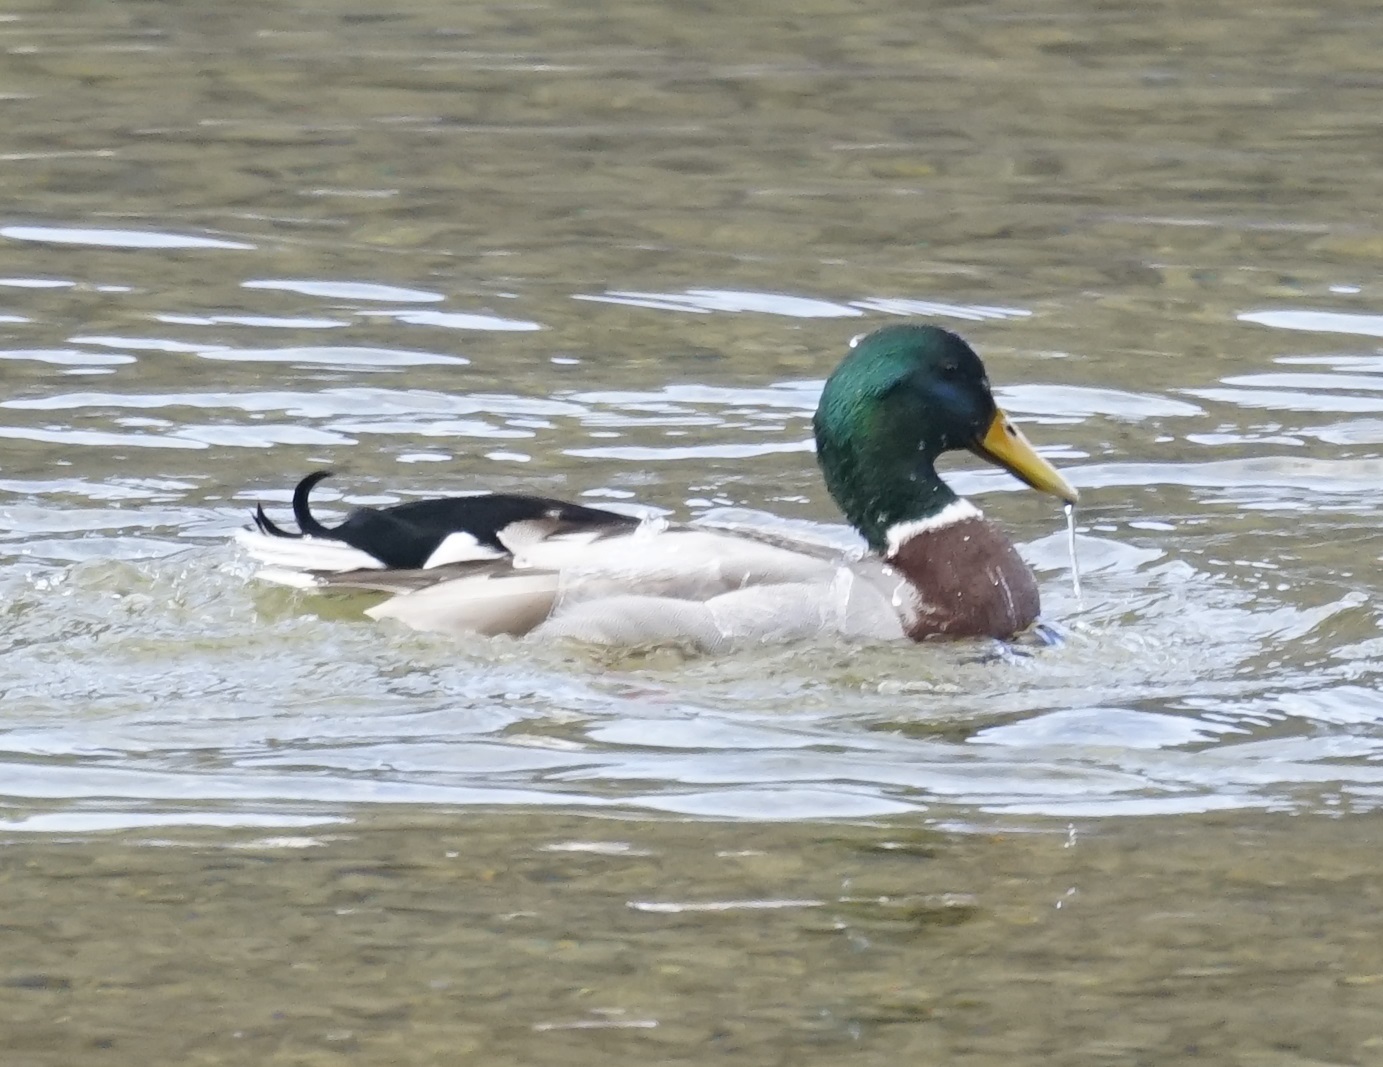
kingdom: Animalia
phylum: Chordata
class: Aves
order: Anseriformes
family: Anatidae
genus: Anas
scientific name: Anas platyrhynchos
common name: Mallard
